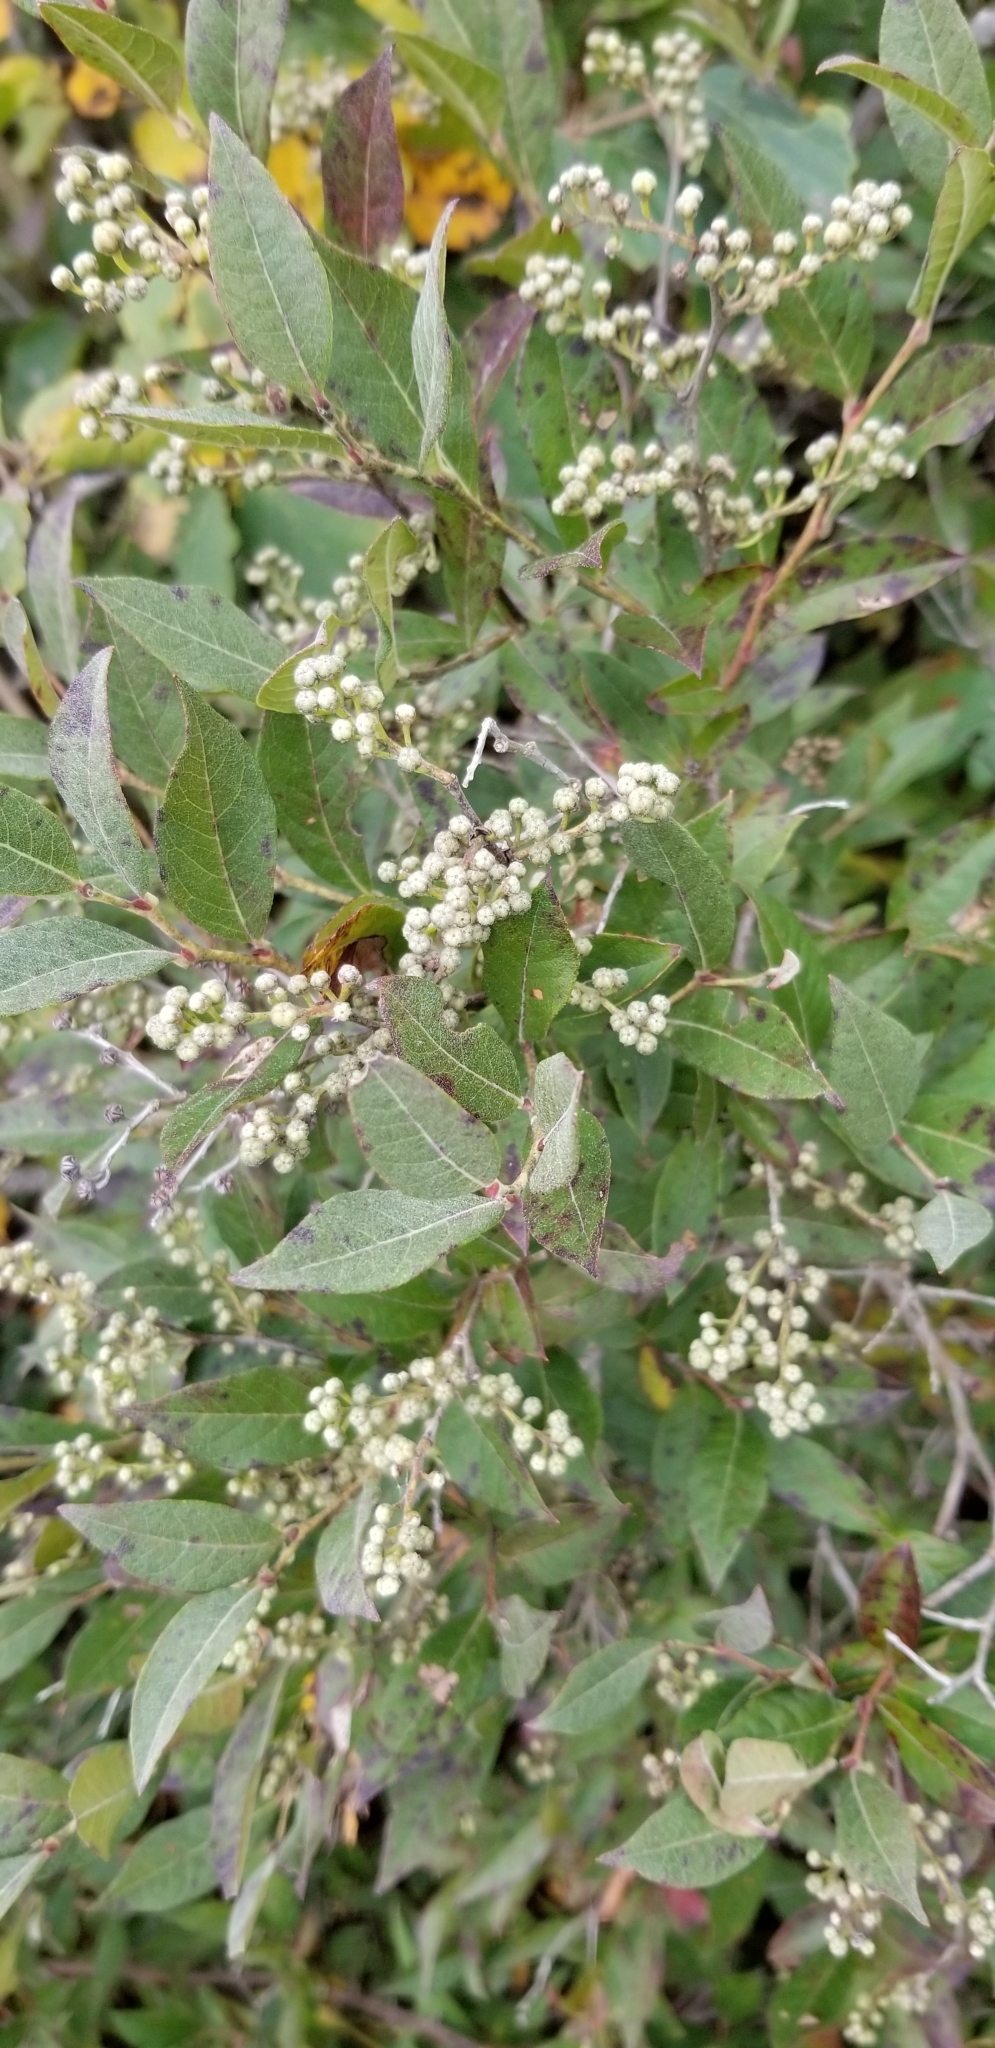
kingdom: Plantae
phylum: Tracheophyta
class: Magnoliopsida
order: Ericales
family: Ericaceae
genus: Lyonia
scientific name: Lyonia ligustrina
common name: Maleberry
